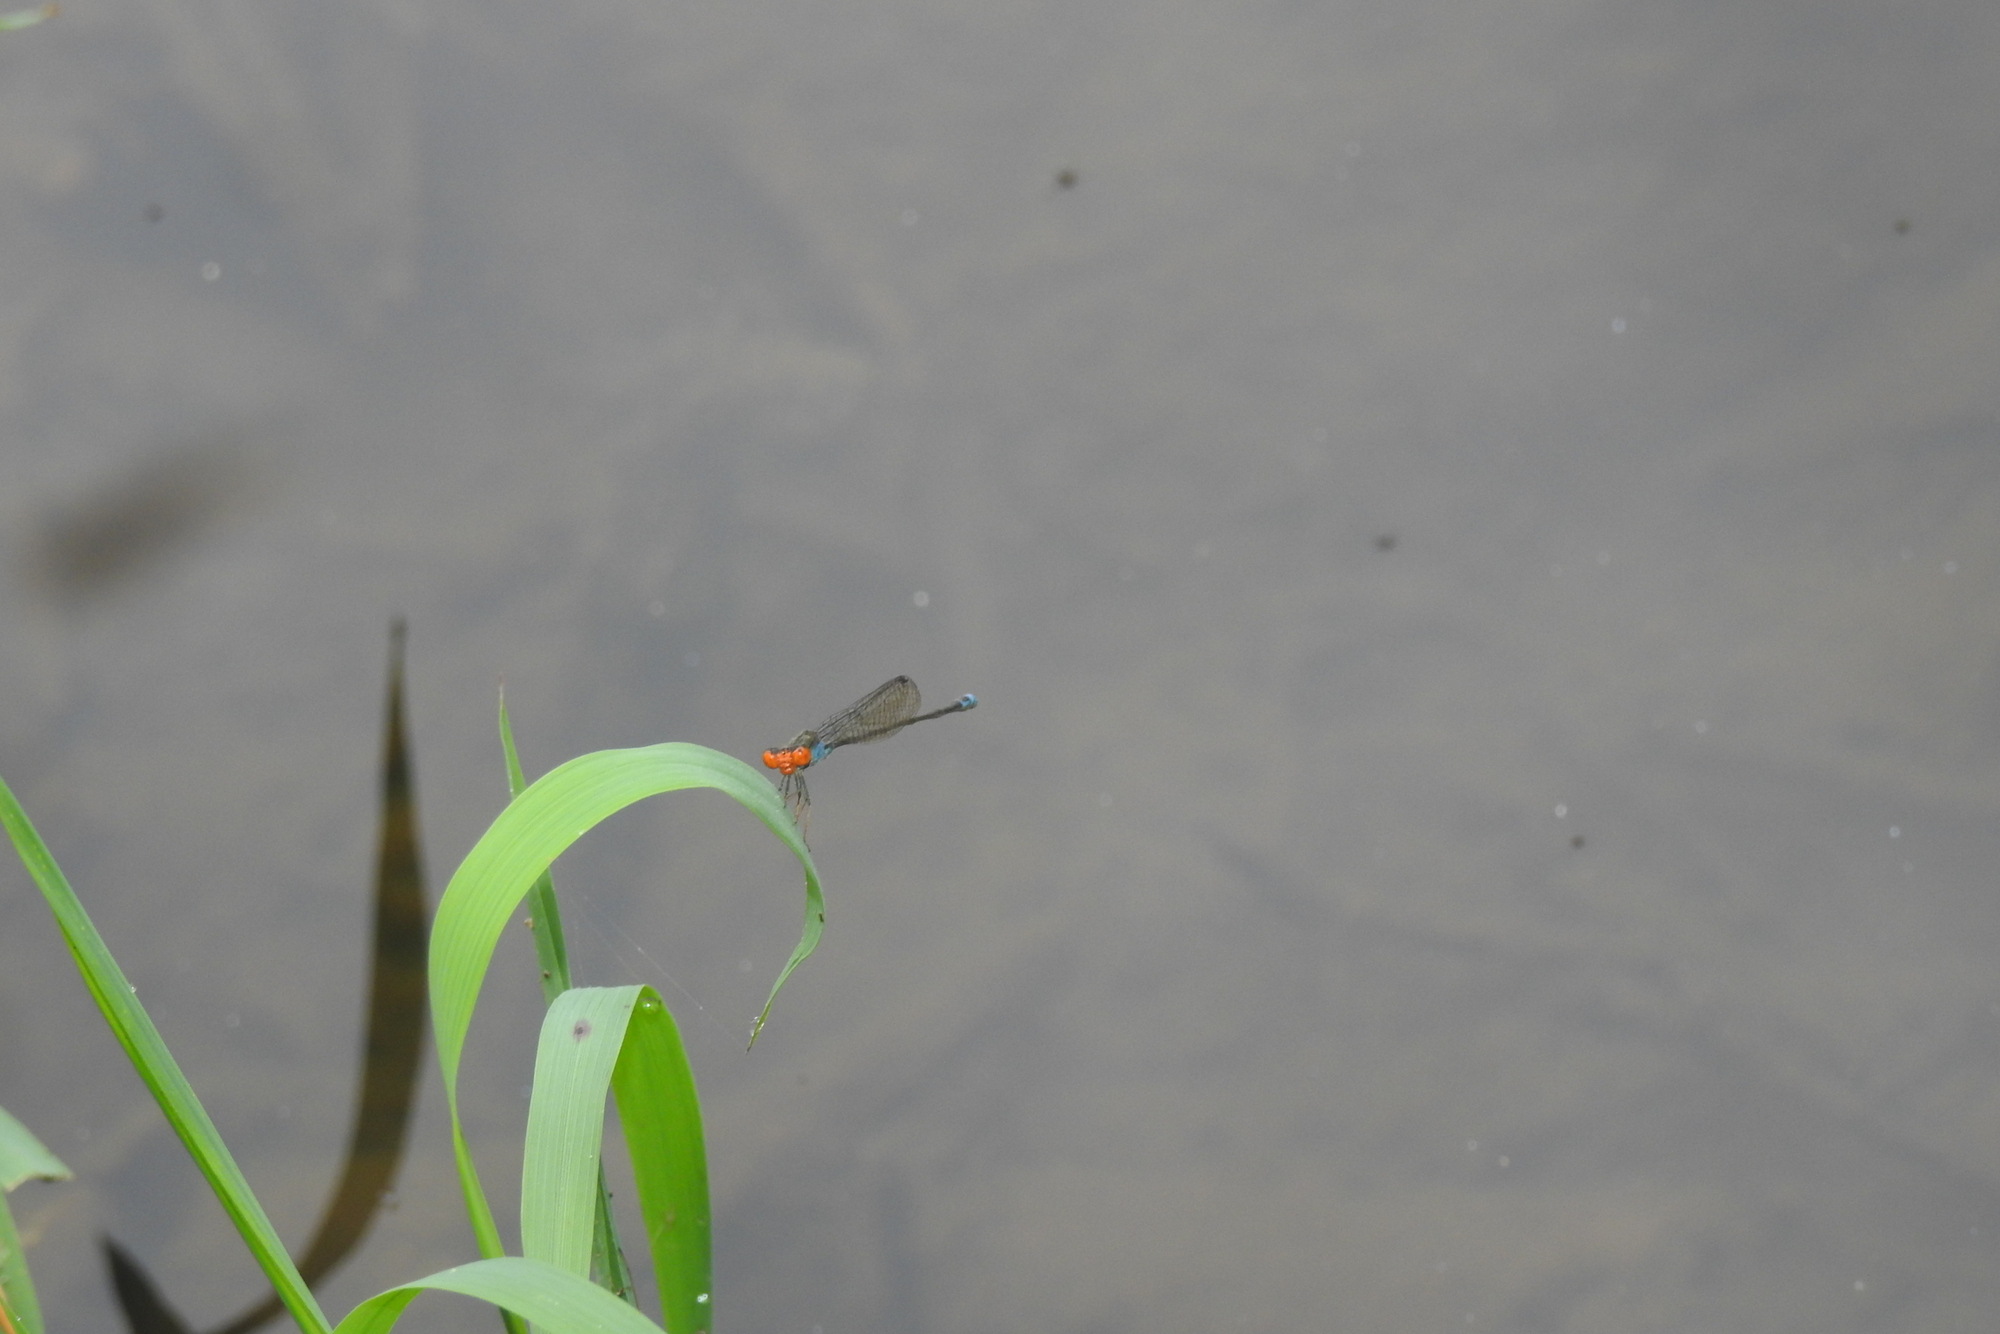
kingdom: Animalia
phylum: Arthropoda
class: Insecta
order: Odonata
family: Coenagrionidae
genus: Pseudagrion
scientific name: Pseudagrion rubriceps
